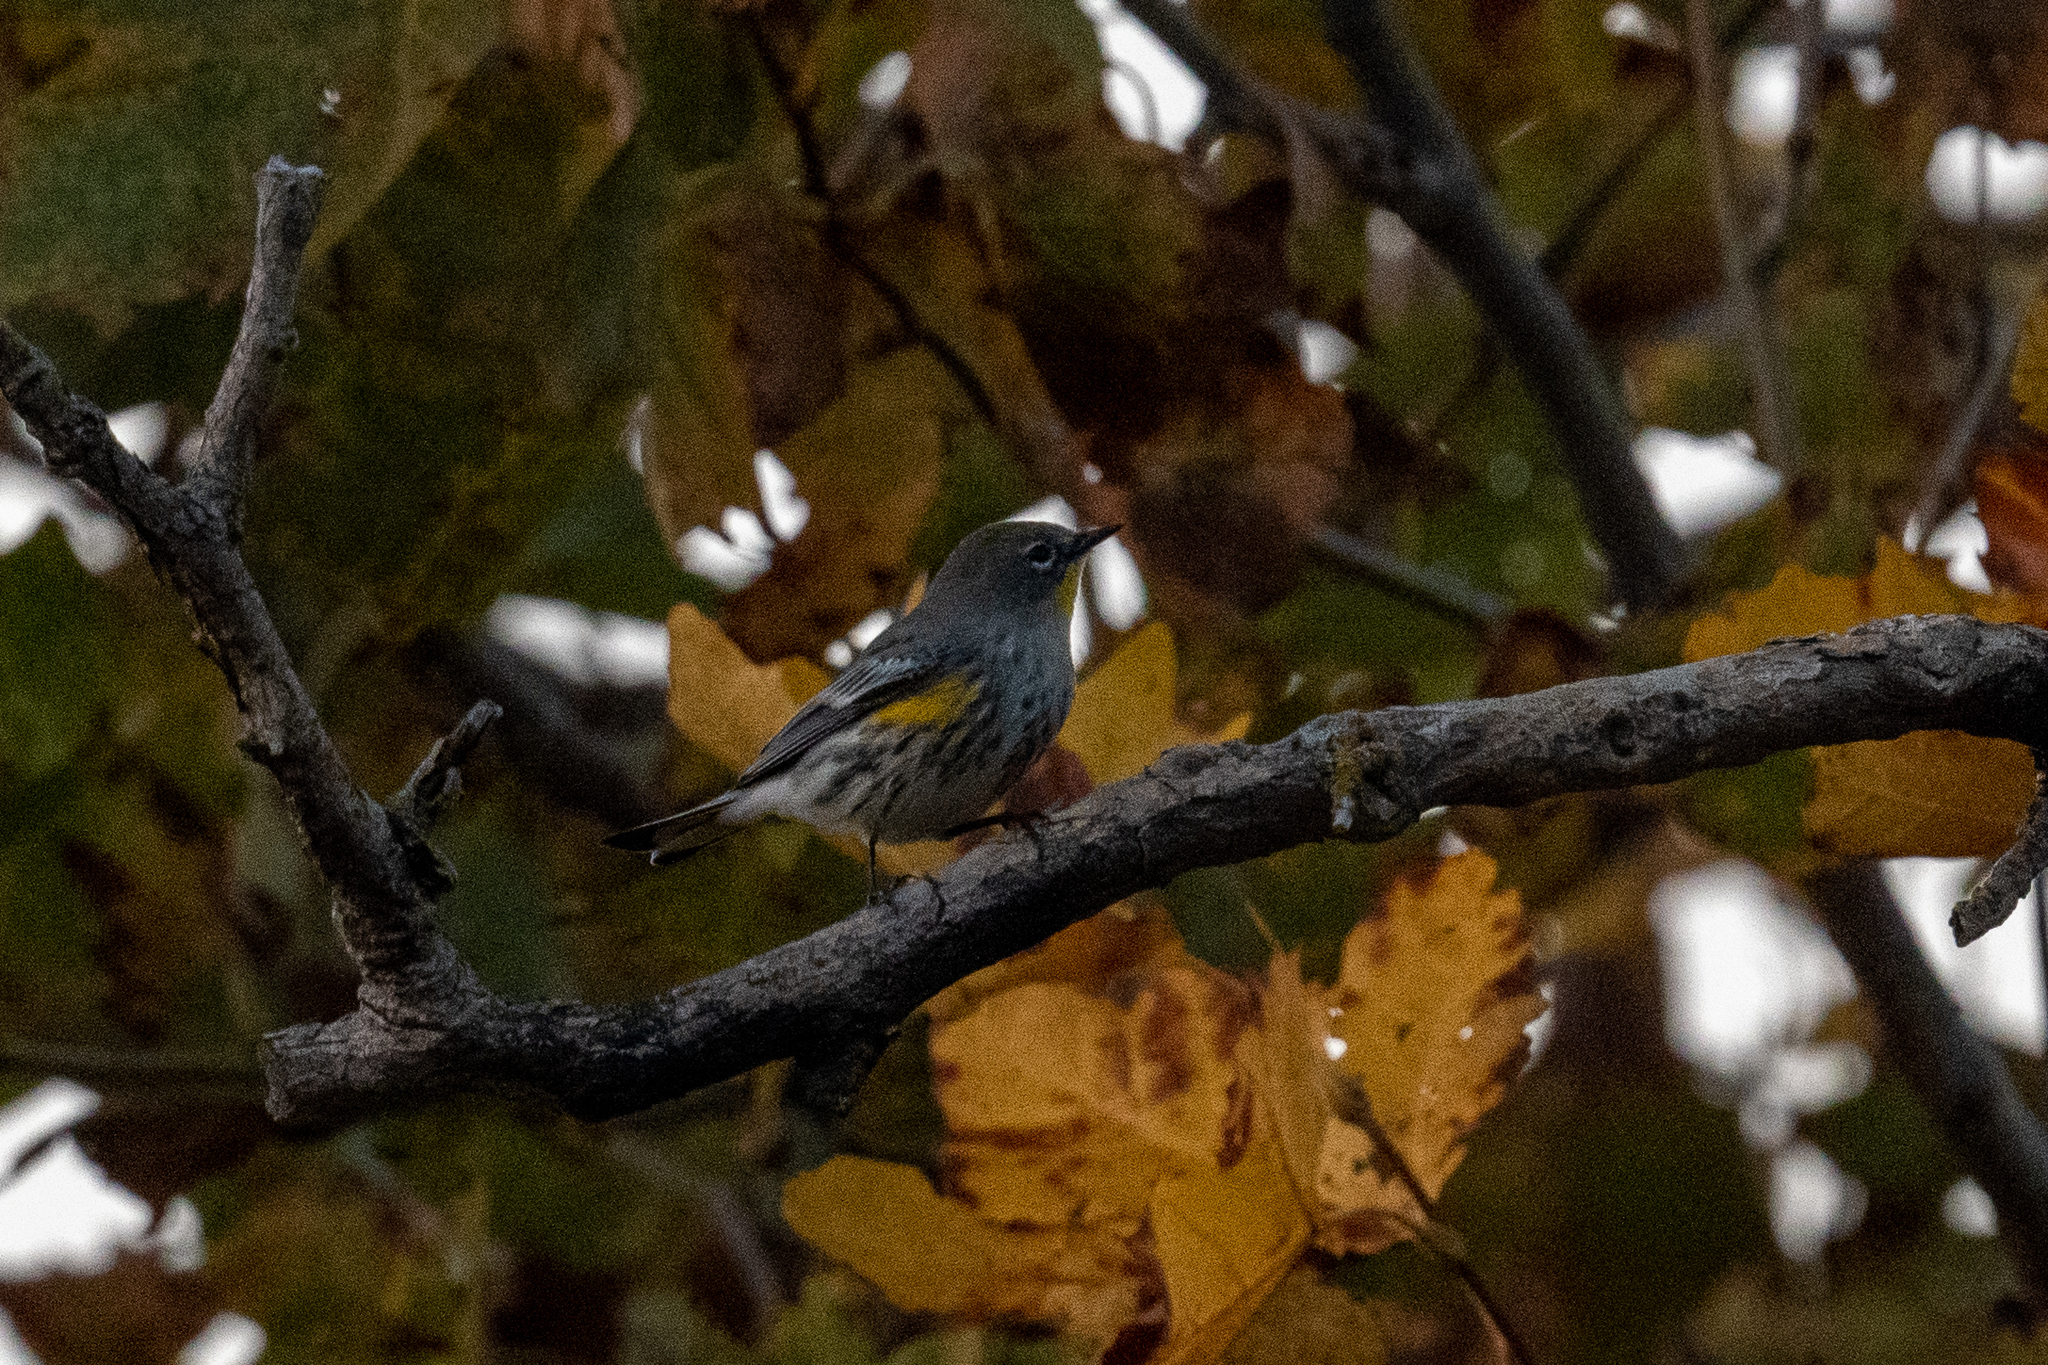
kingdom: Animalia
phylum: Chordata
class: Aves
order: Passeriformes
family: Parulidae
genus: Setophaga
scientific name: Setophaga coronata
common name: Myrtle warbler
